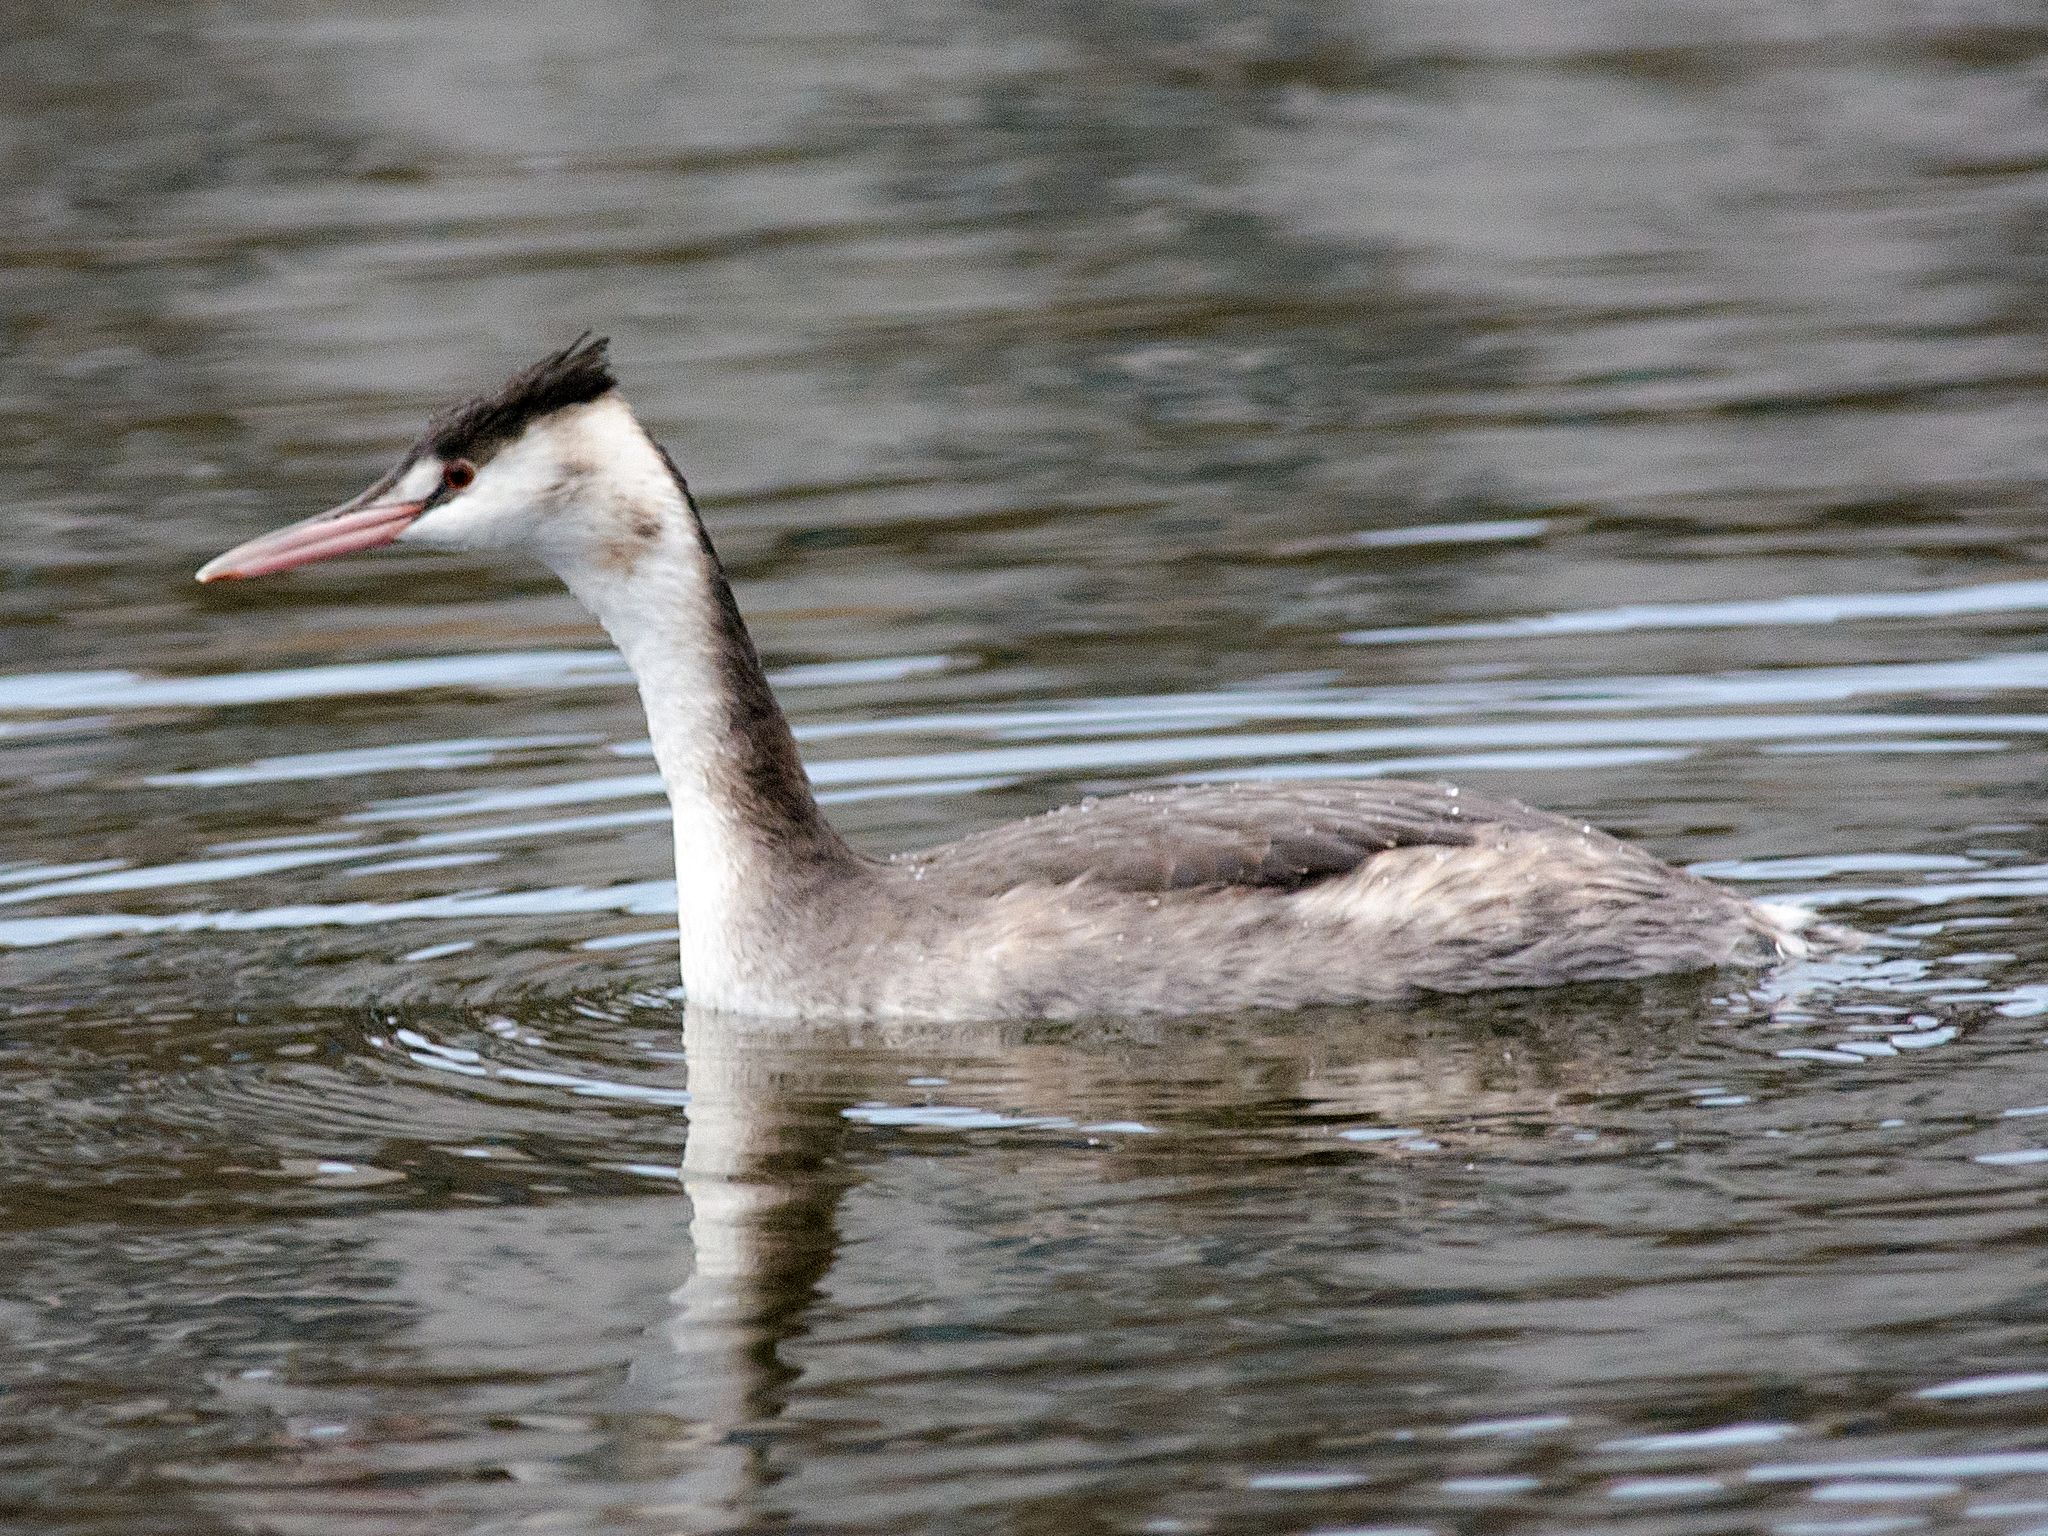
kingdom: Animalia
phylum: Chordata
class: Aves
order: Podicipediformes
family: Podicipedidae
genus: Podiceps
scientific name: Podiceps cristatus
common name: Great crested grebe
